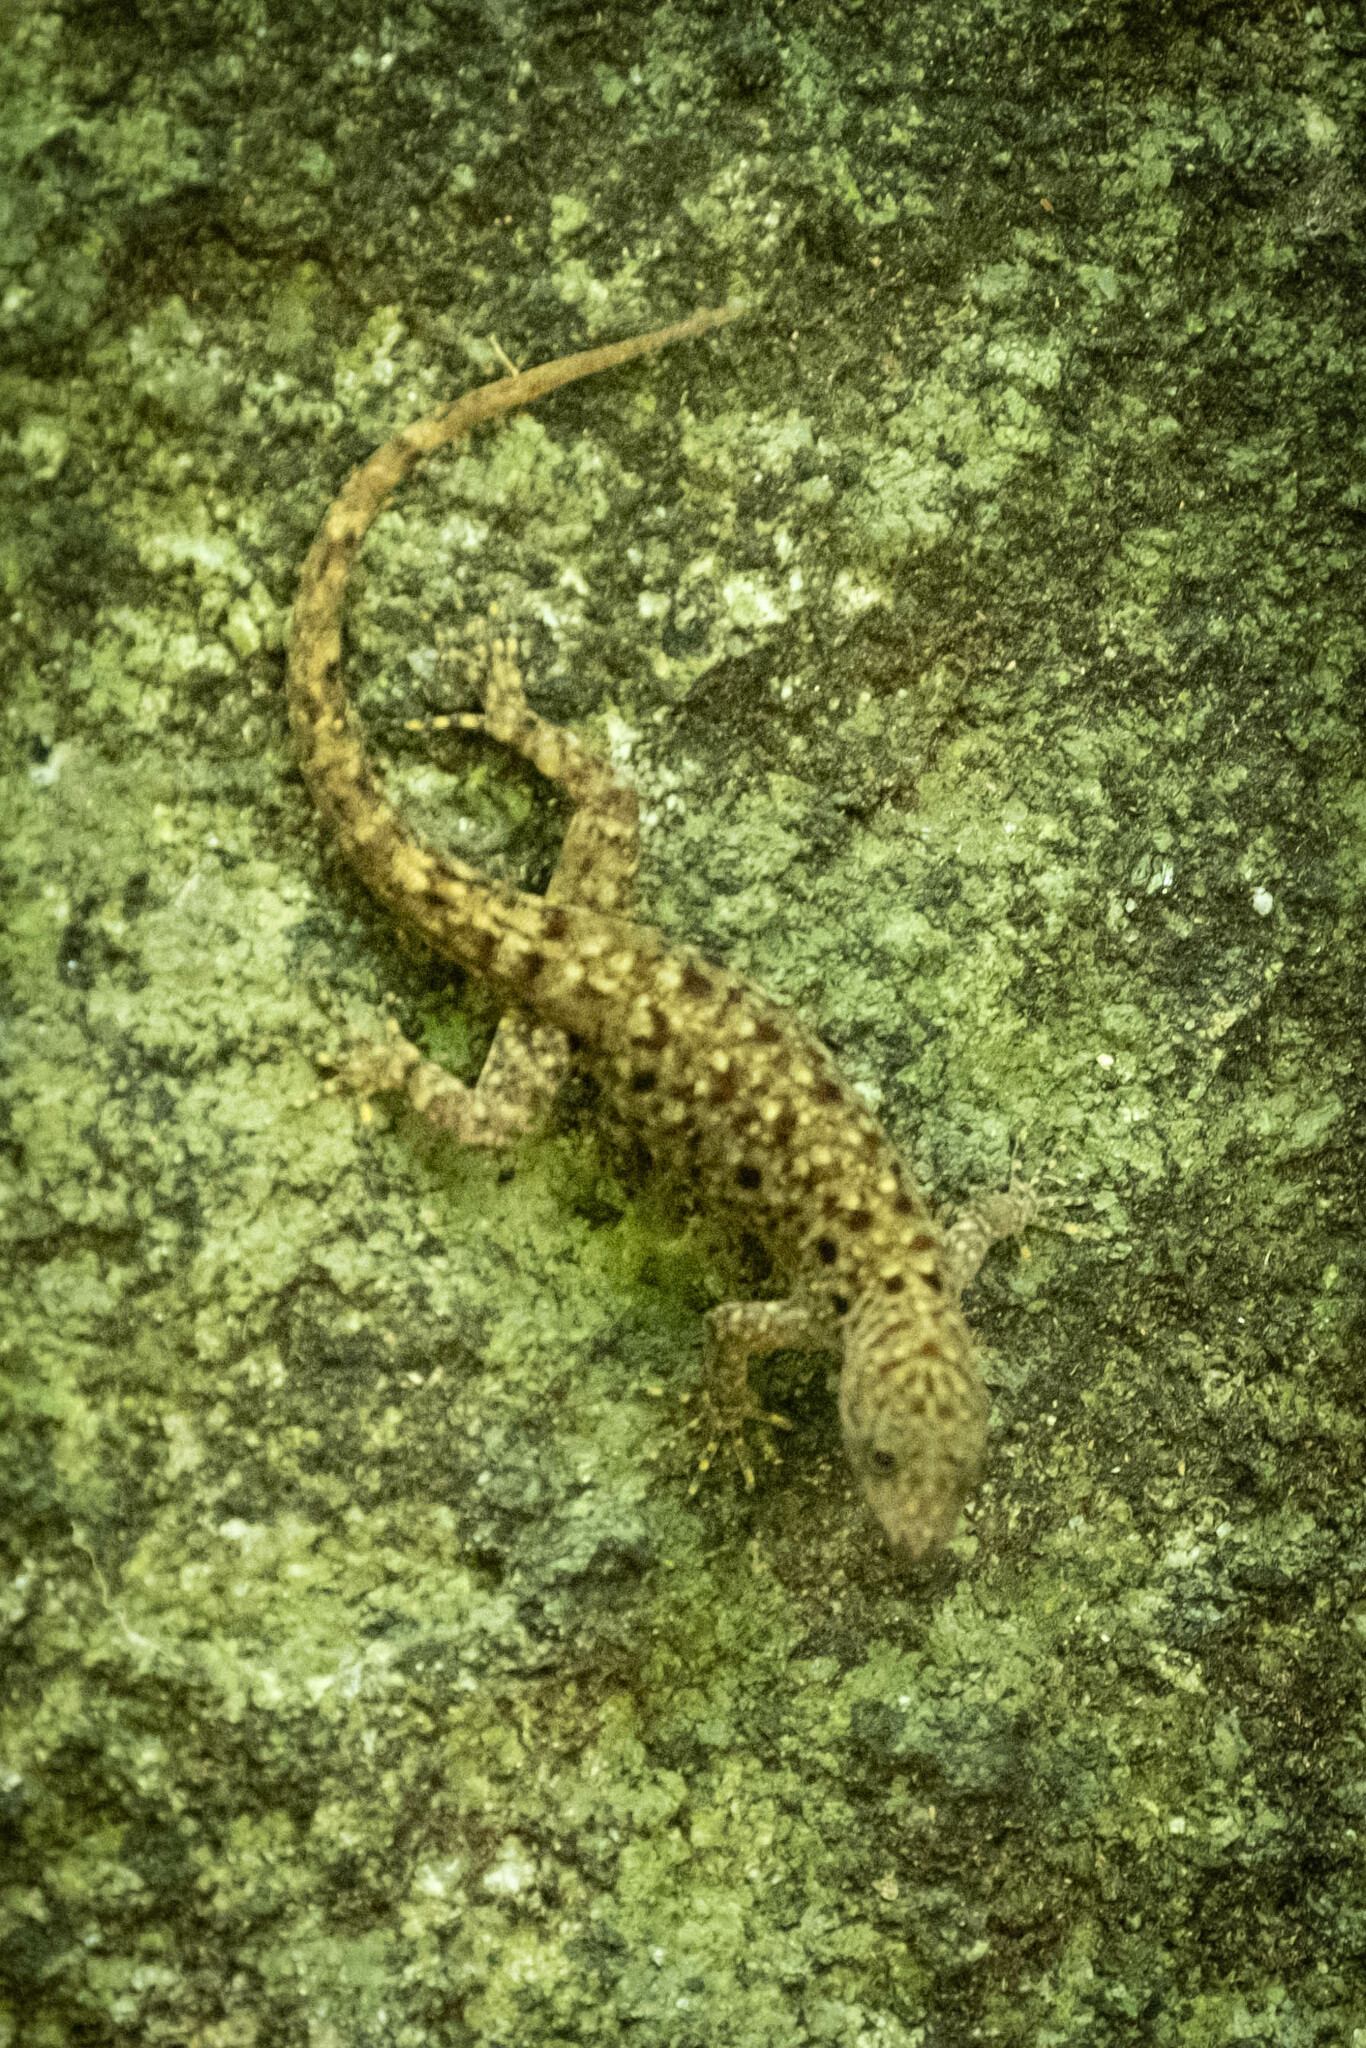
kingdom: Animalia
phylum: Chordata
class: Squamata
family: Sphaerodactylidae
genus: Gonatodes
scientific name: Gonatodes albogularis
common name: Yellow-headed gecko
